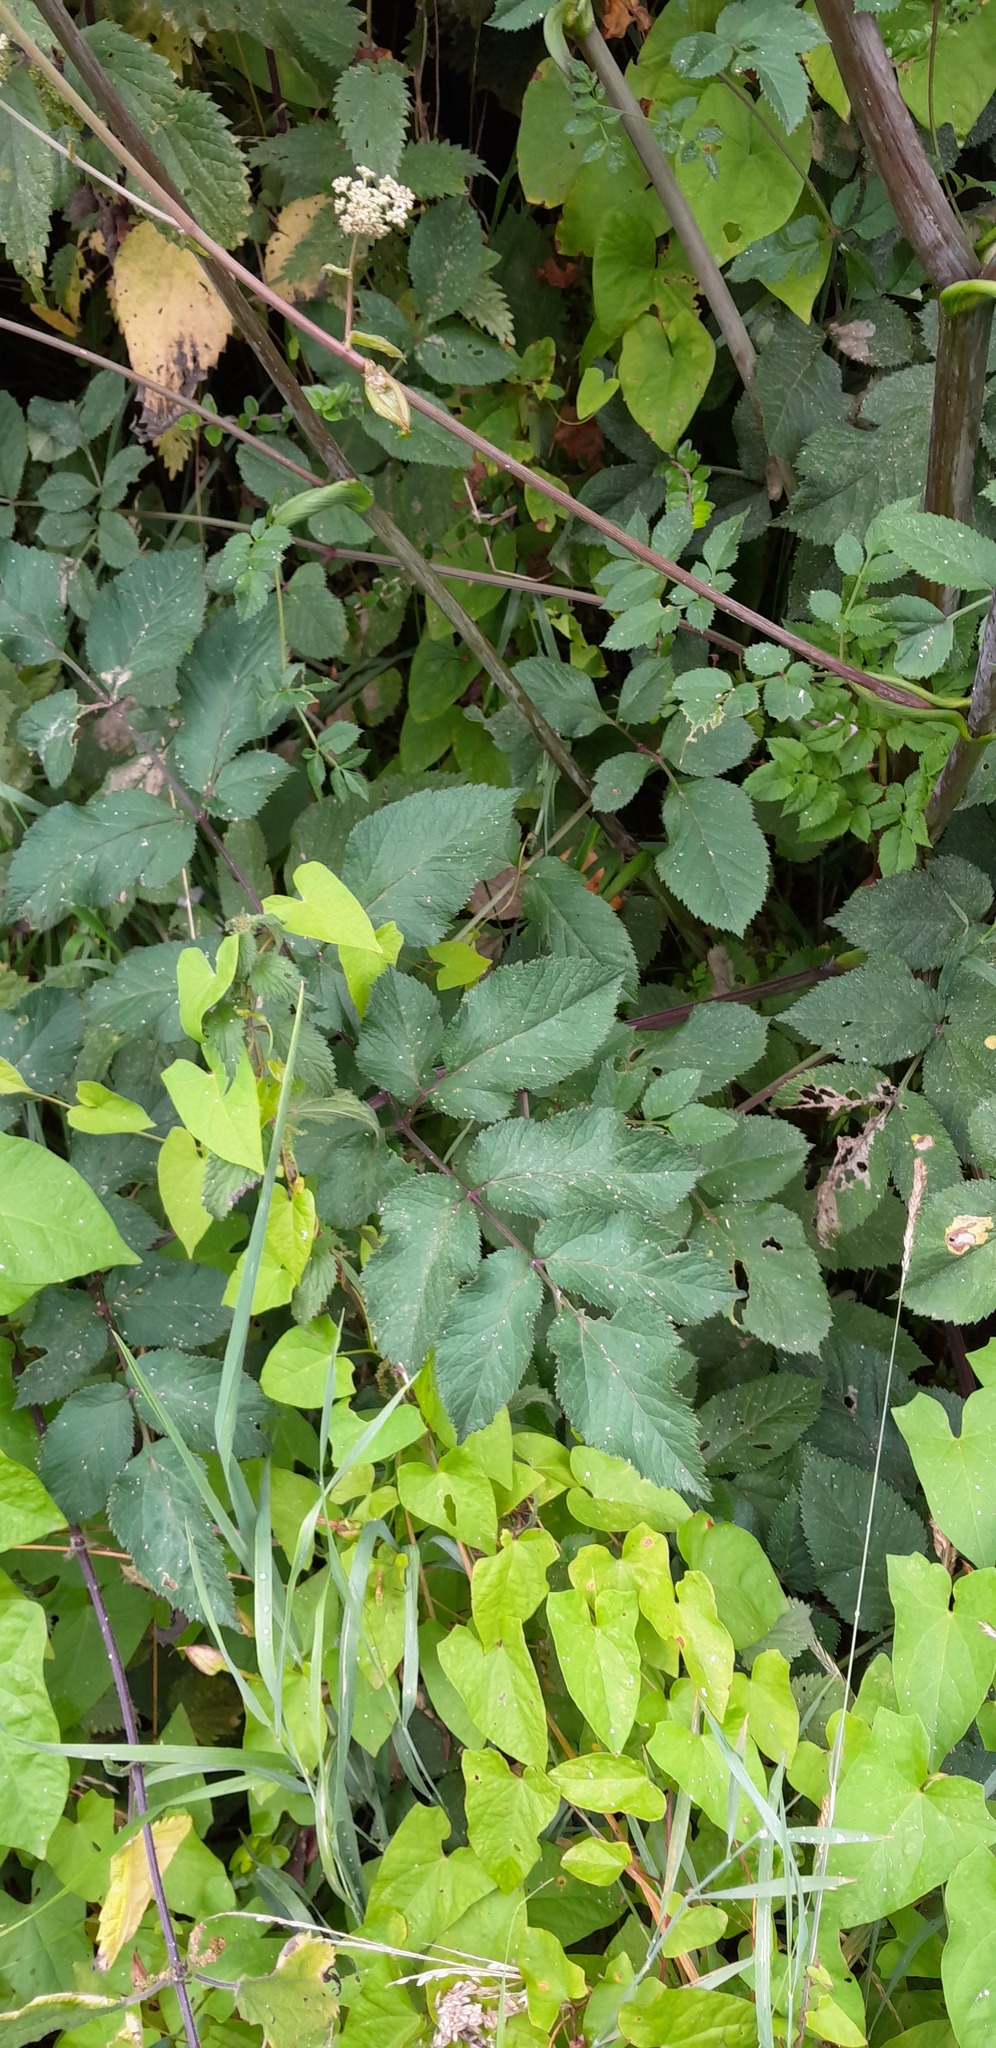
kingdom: Plantae
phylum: Tracheophyta
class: Magnoliopsida
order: Apiales
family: Apiaceae
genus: Angelica
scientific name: Angelica sylvestris
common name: Wild angelica
